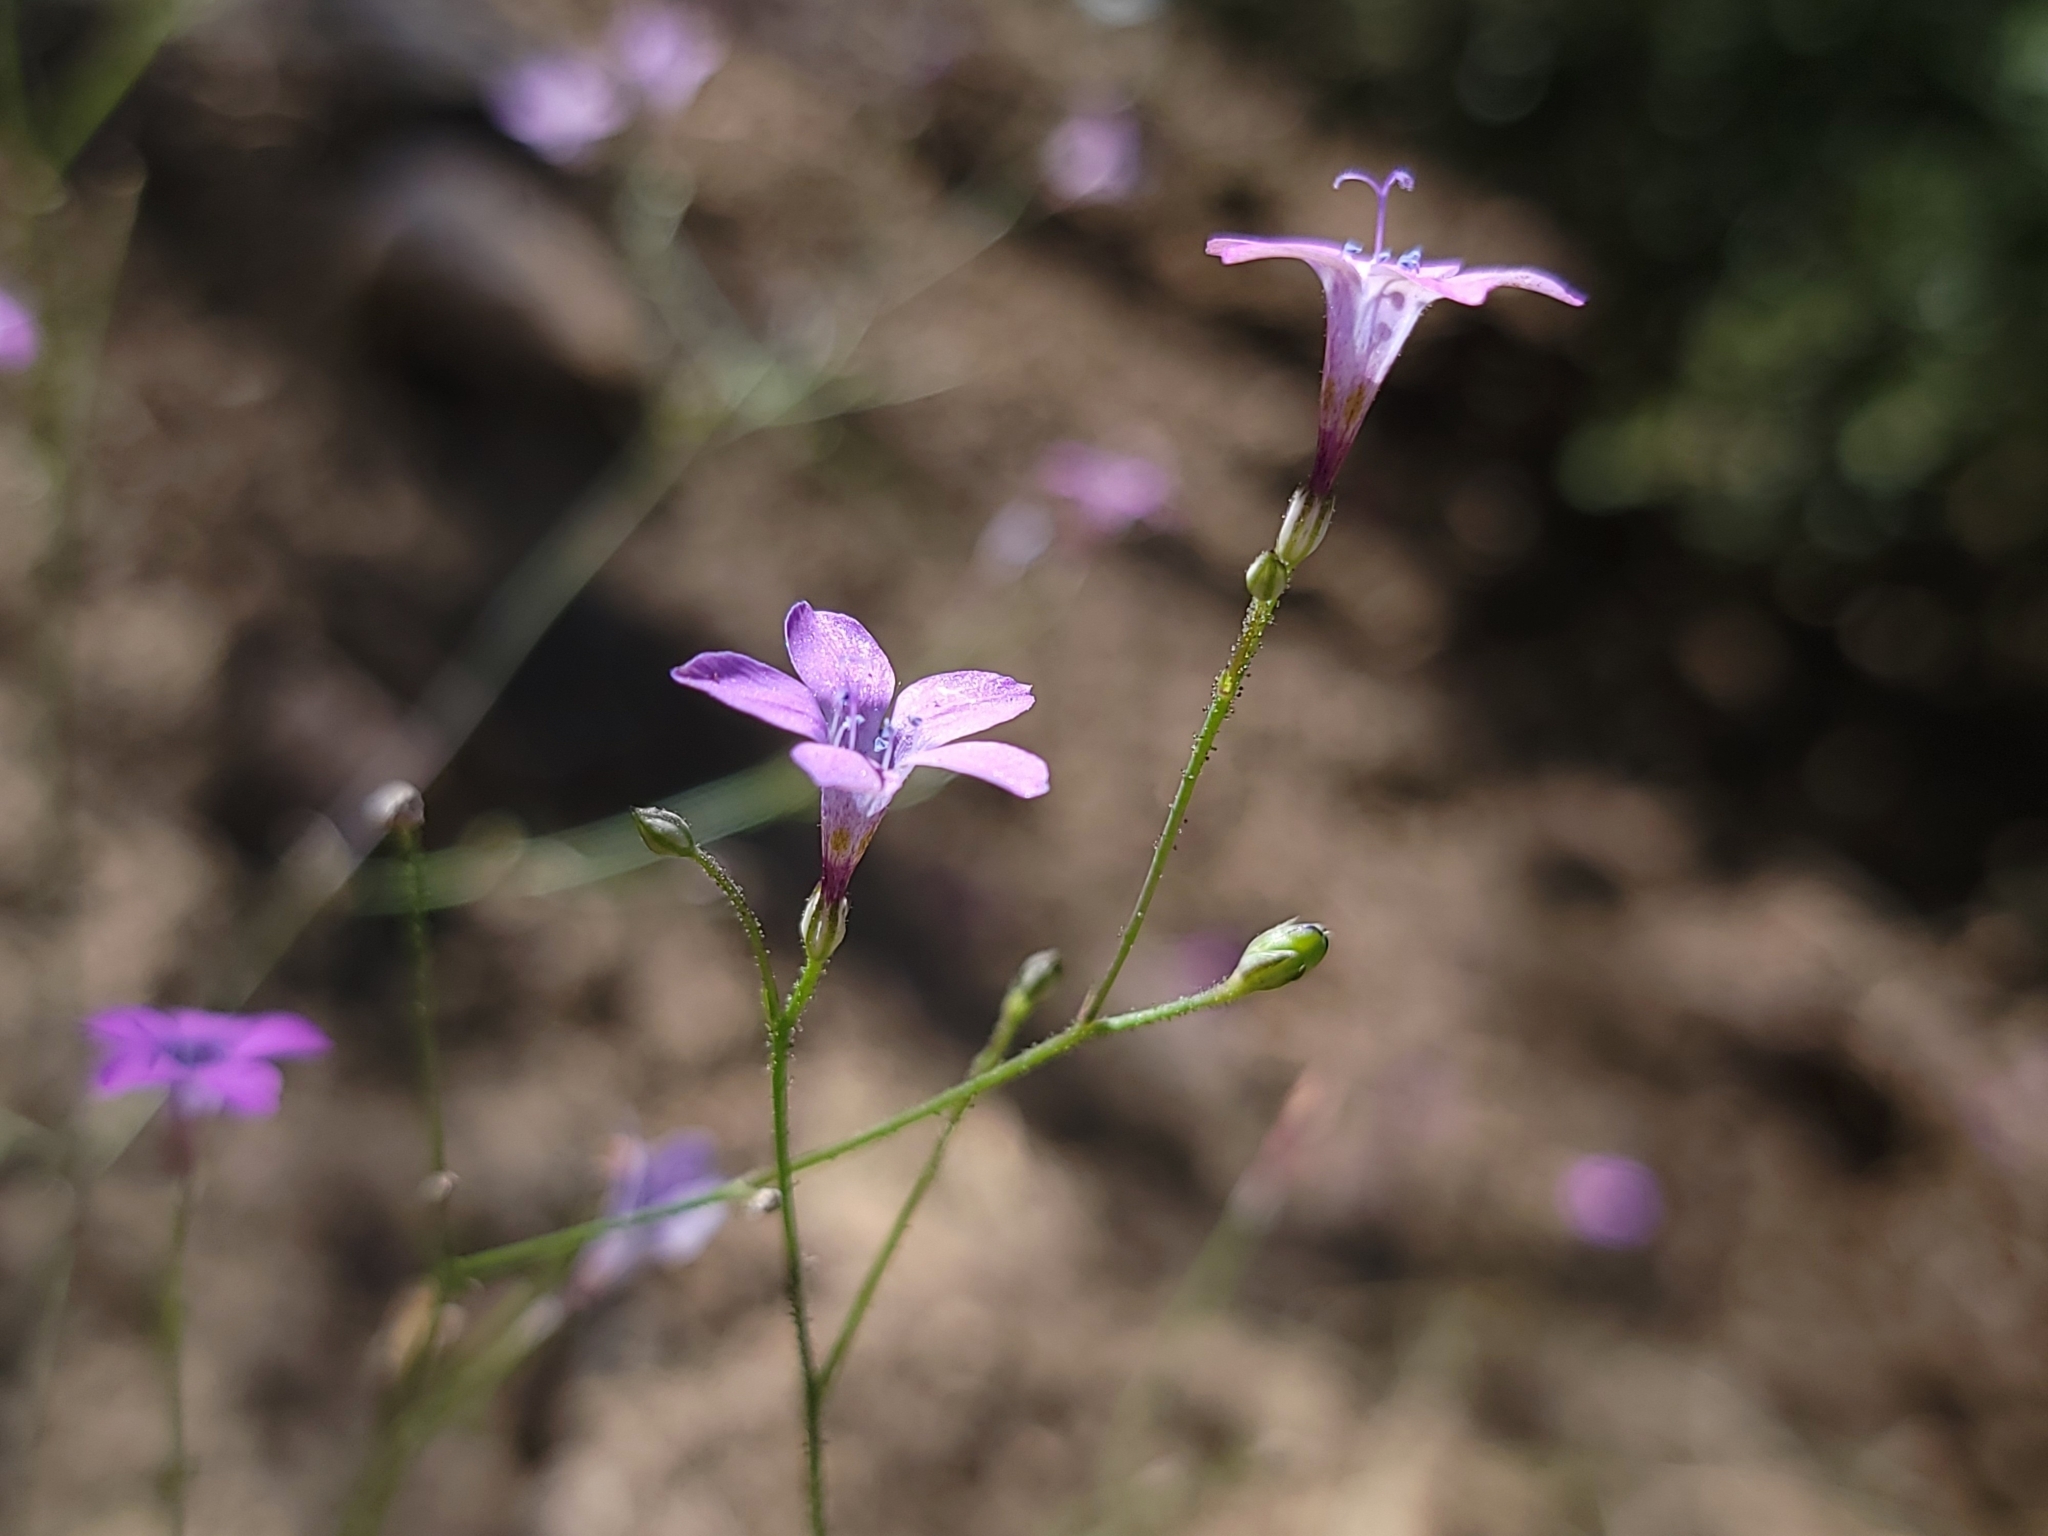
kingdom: Plantae
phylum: Tracheophyta
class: Magnoliopsida
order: Ericales
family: Polemoniaceae
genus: Saltugilia
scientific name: Saltugilia splendens
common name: Grinnell's gilia
